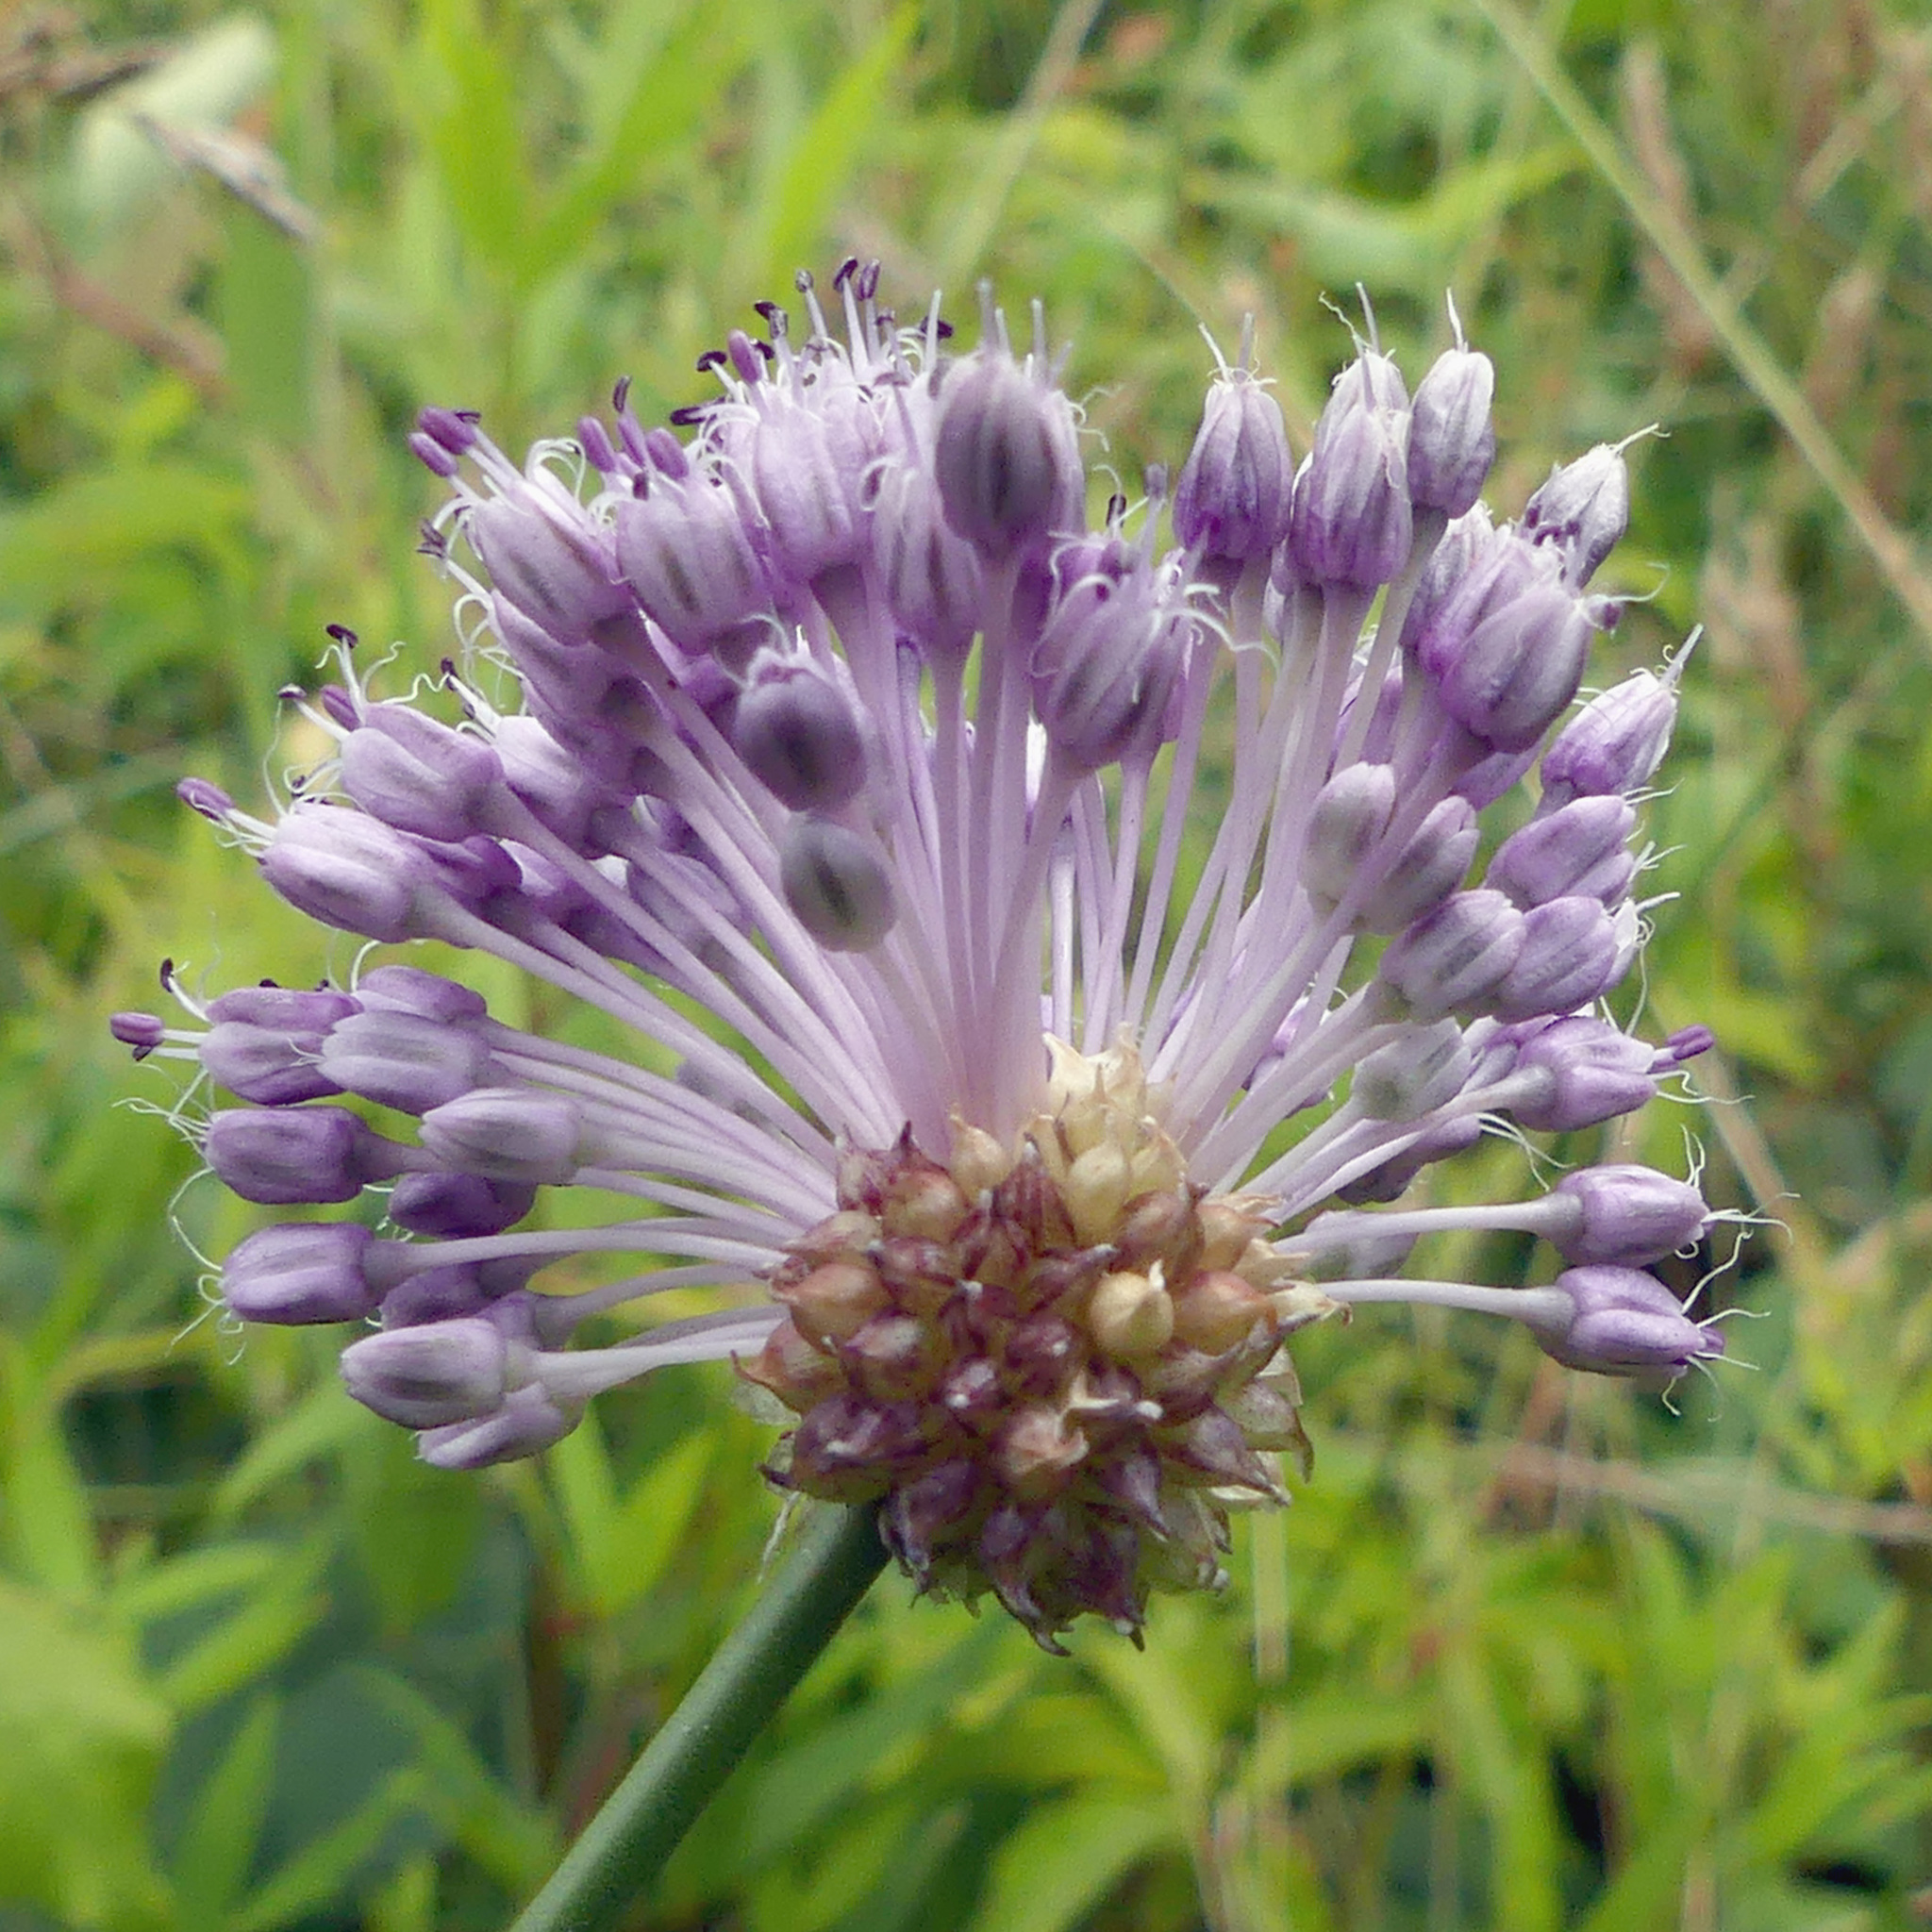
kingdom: Plantae
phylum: Tracheophyta
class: Liliopsida
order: Asparagales
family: Amaryllidaceae
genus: Allium
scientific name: Allium vineale
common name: Crow garlic
